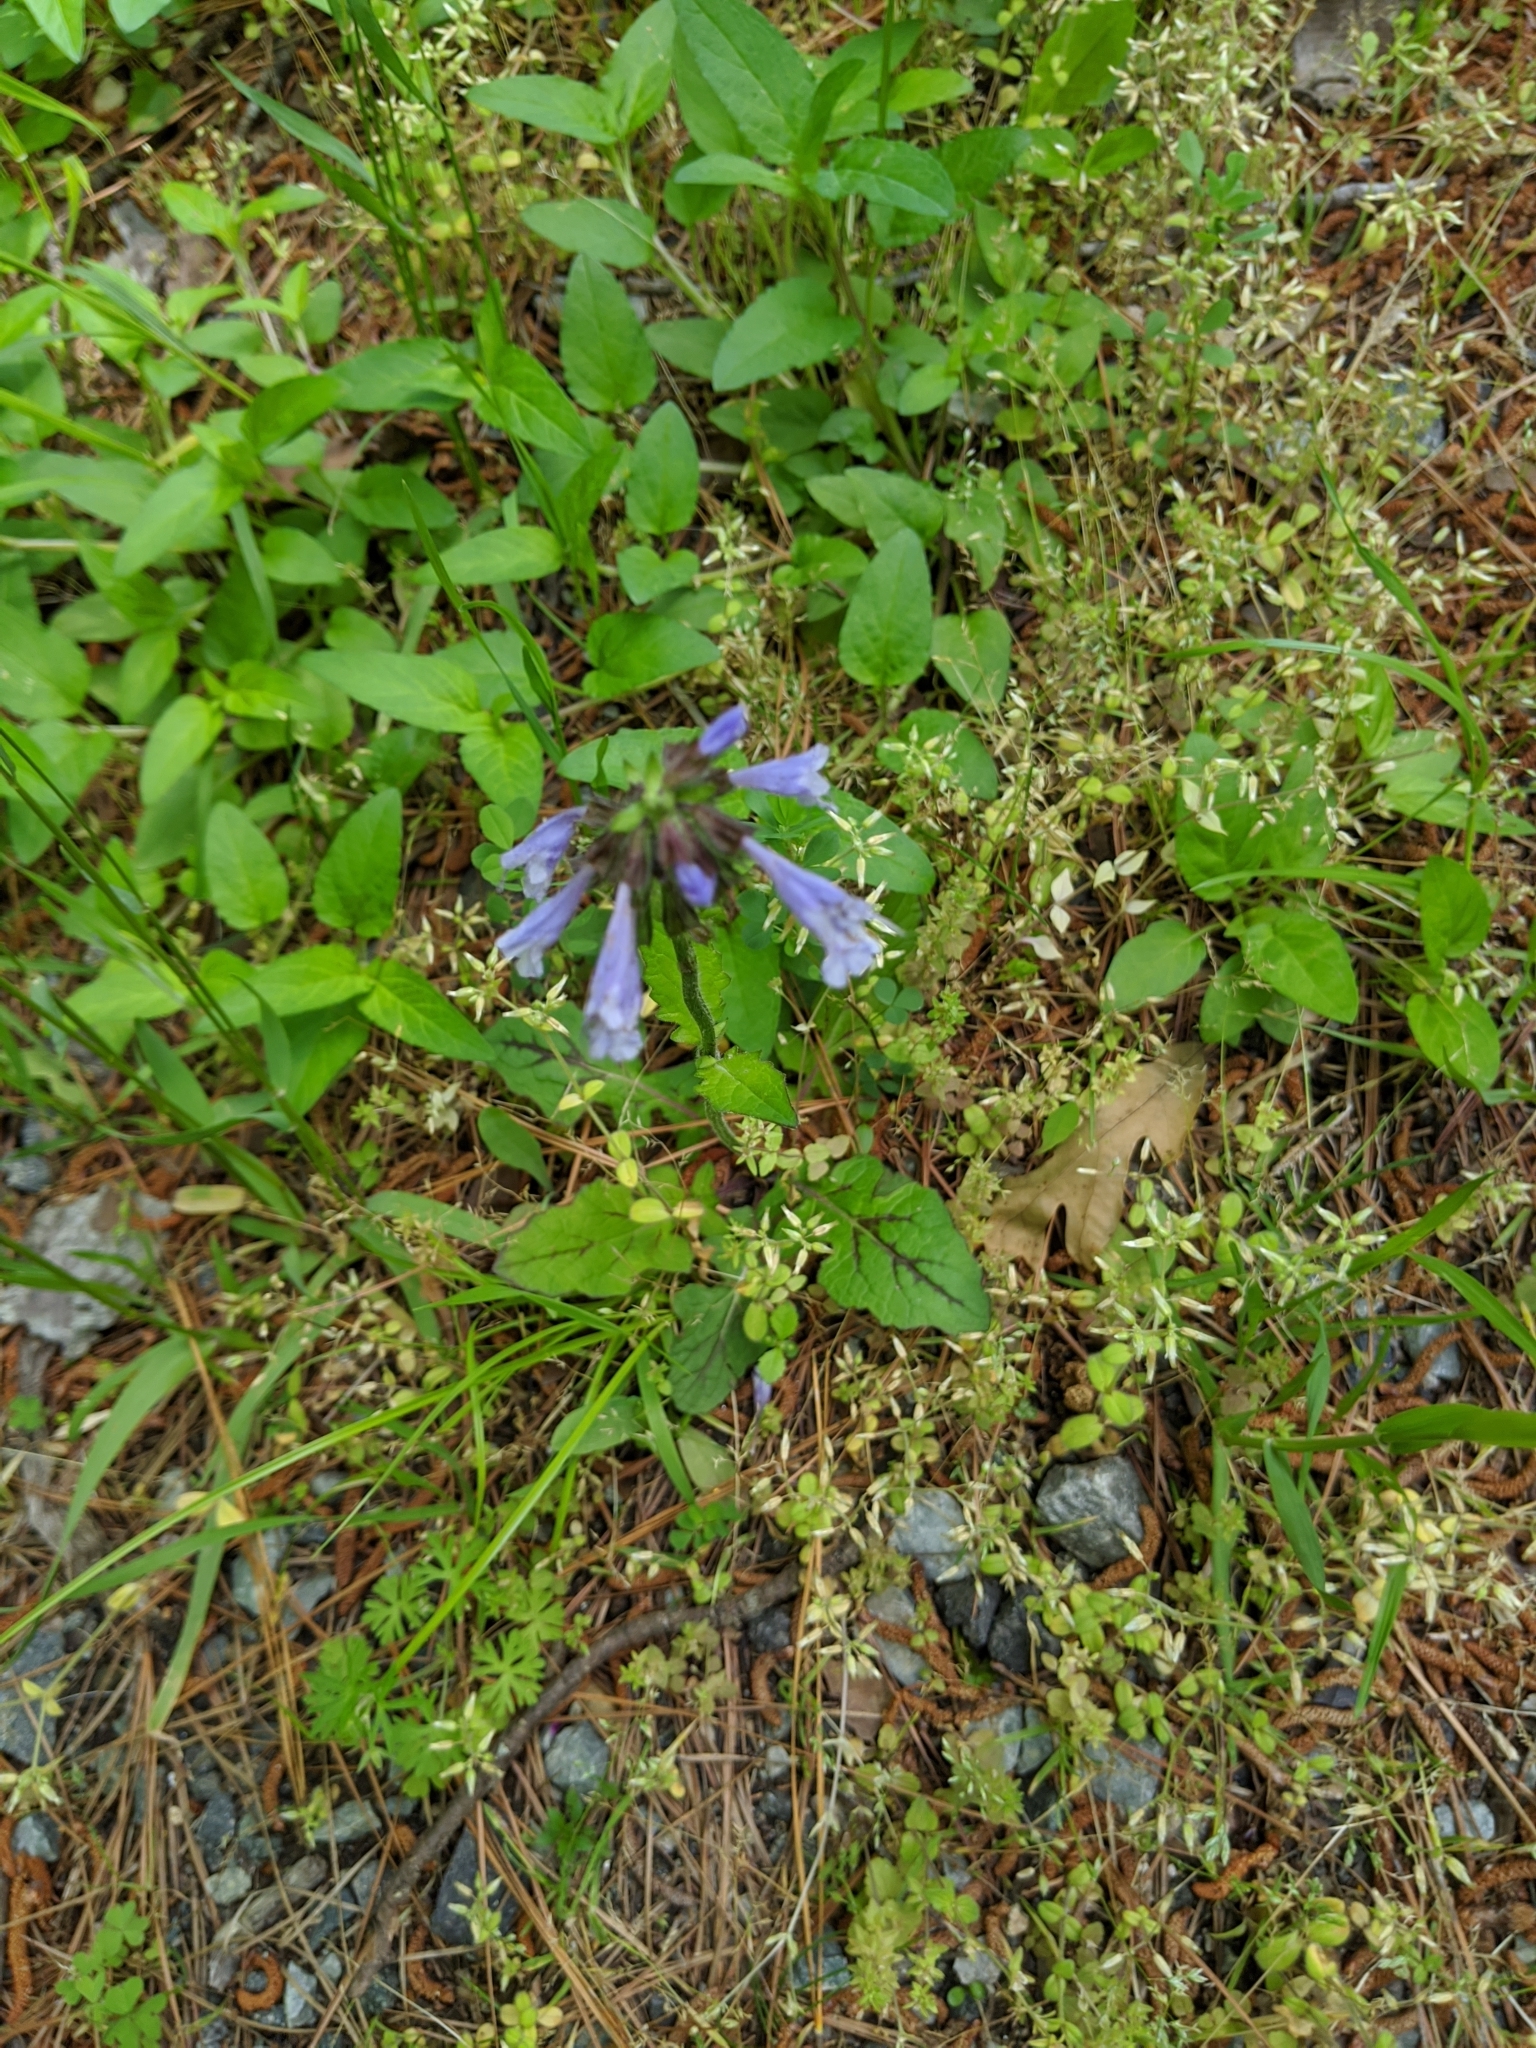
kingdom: Plantae
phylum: Tracheophyta
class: Magnoliopsida
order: Lamiales
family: Lamiaceae
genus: Salvia
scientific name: Salvia lyrata
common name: Cancerweed
